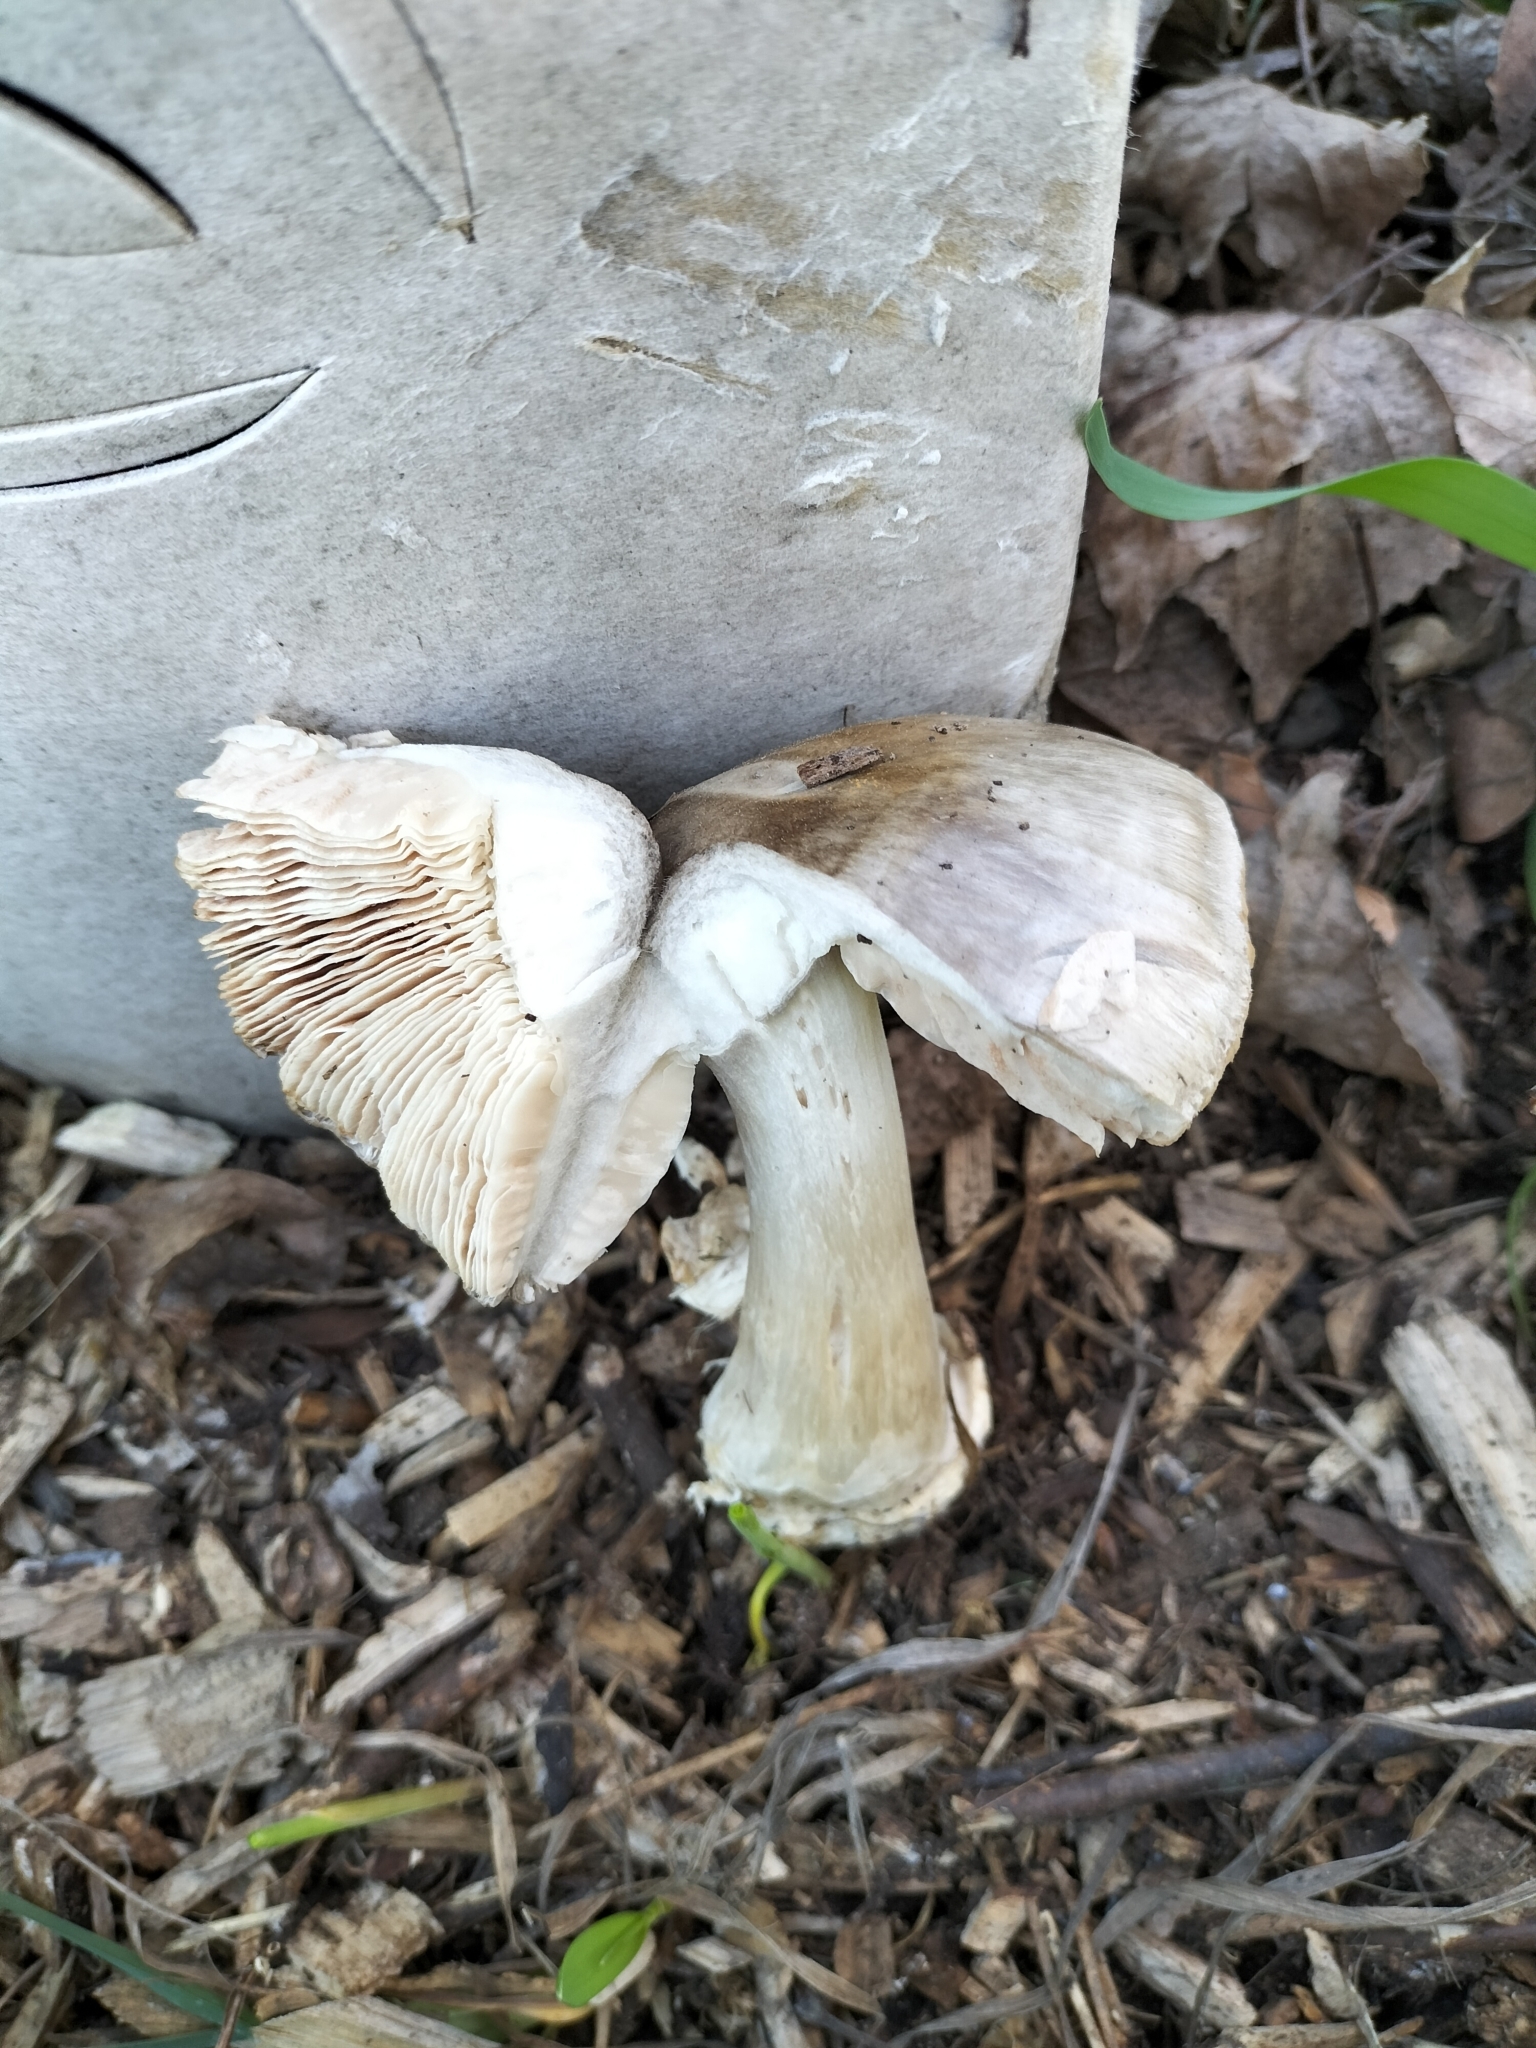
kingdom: Fungi
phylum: Basidiomycota
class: Agaricomycetes
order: Agaricales
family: Pluteaceae
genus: Volvopluteus
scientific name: Volvopluteus gloiocephalus
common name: Stubble rosegill
